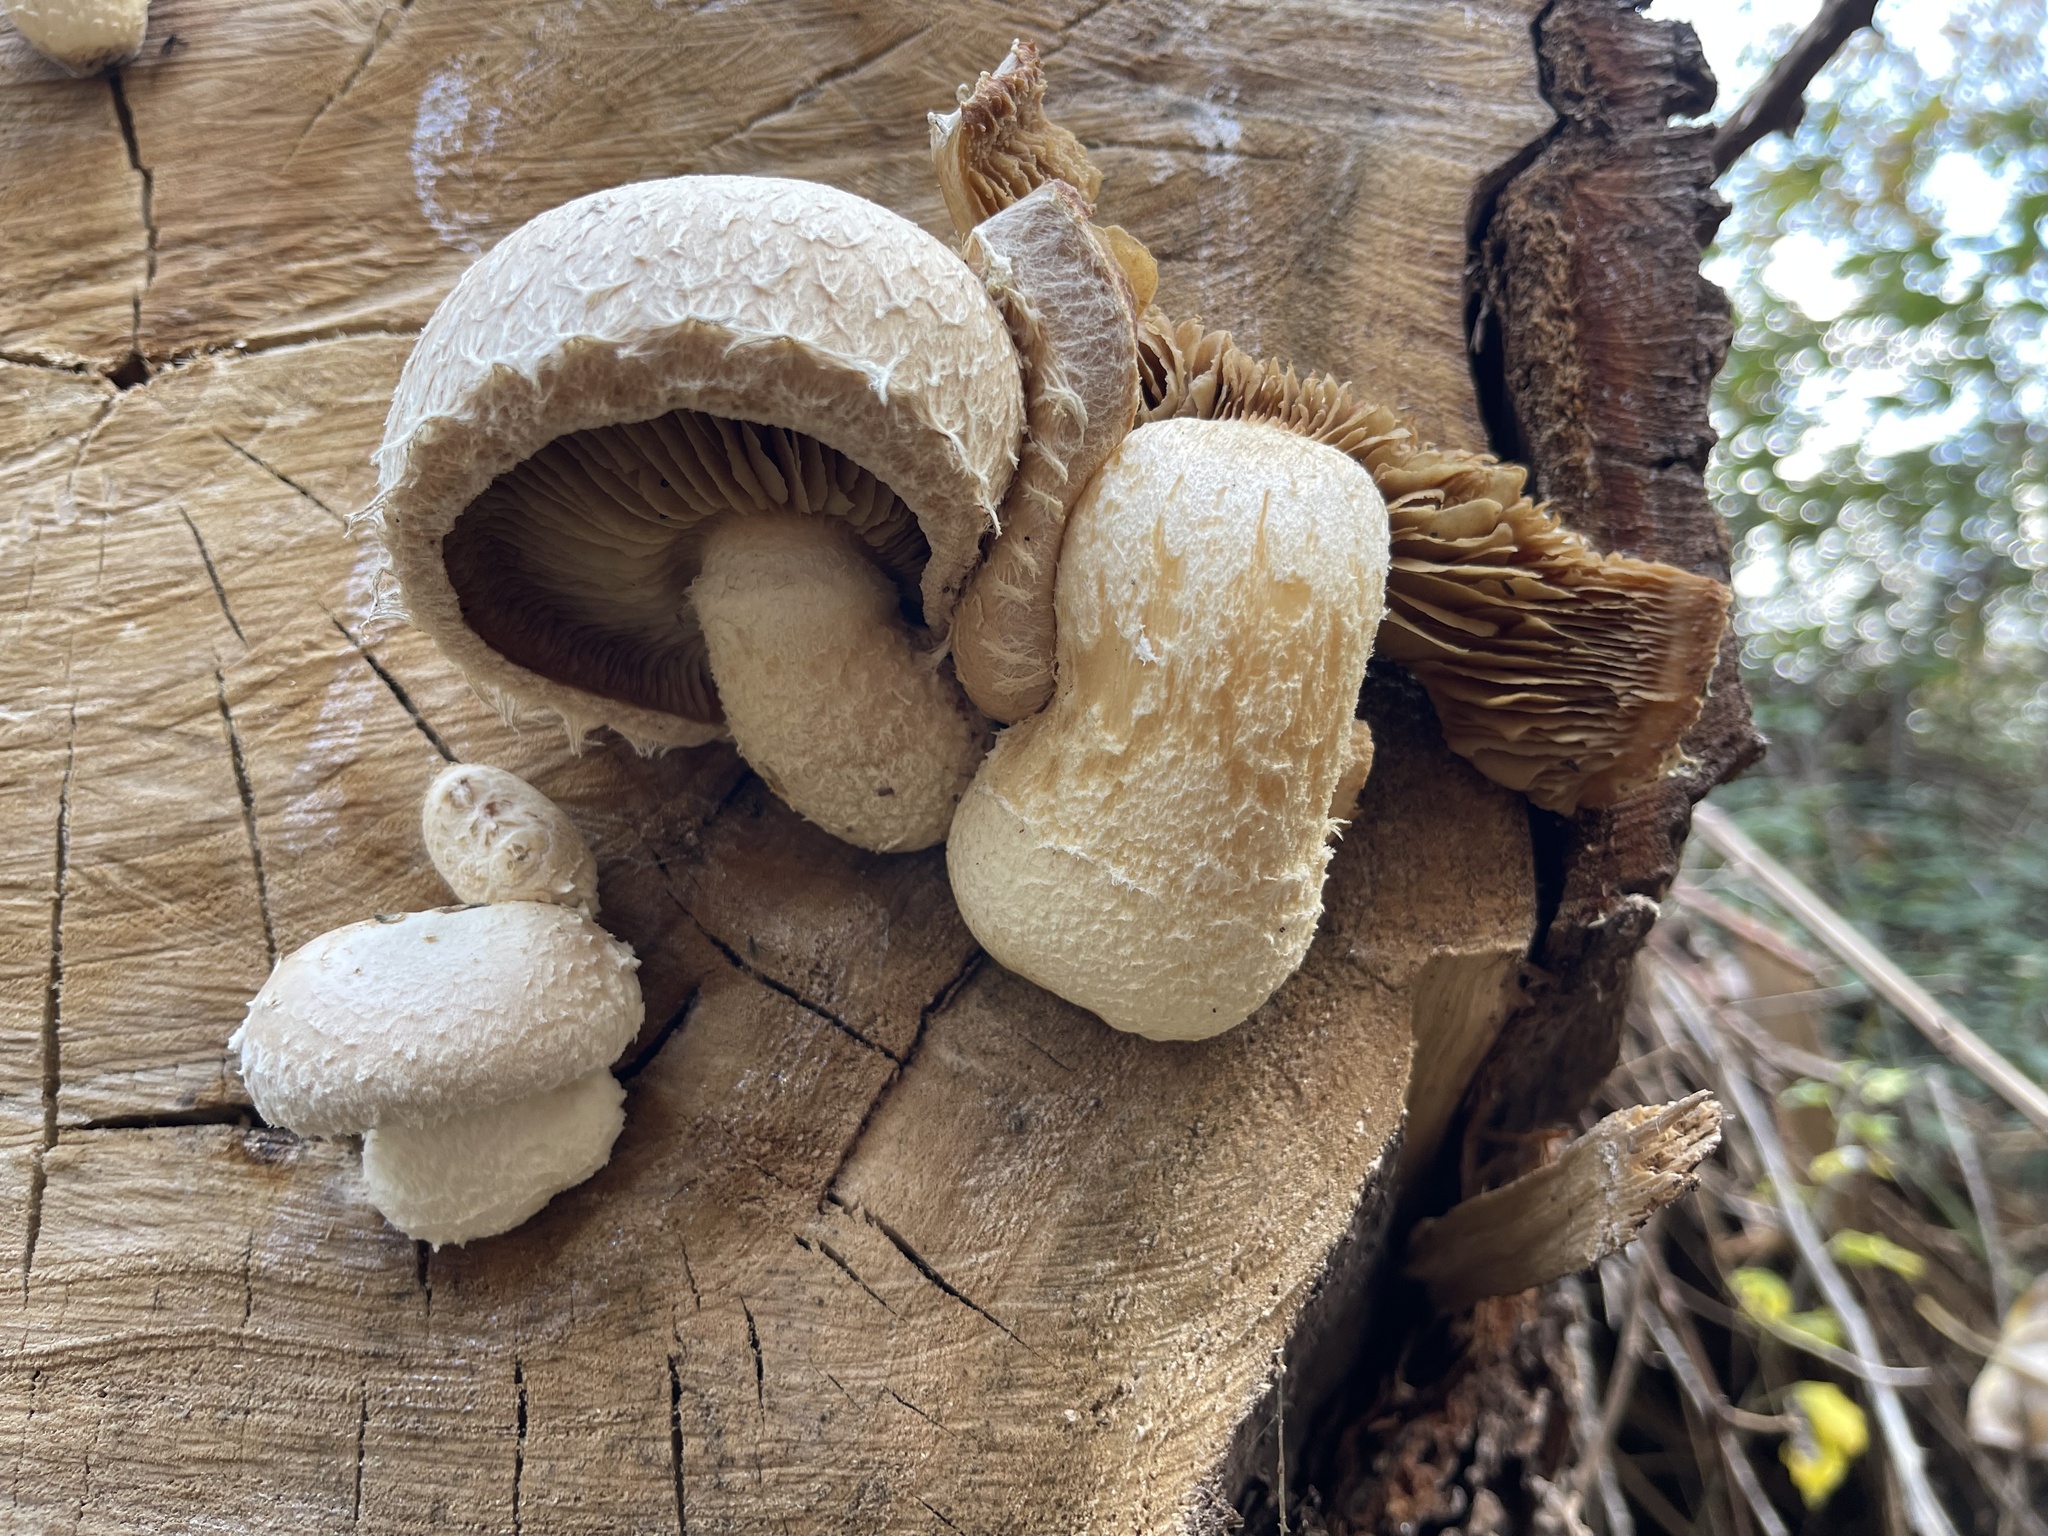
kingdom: Fungi
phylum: Basidiomycota
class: Agaricomycetes
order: Agaricales
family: Strophariaceae
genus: Pholiota
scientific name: Pholiota populnea
